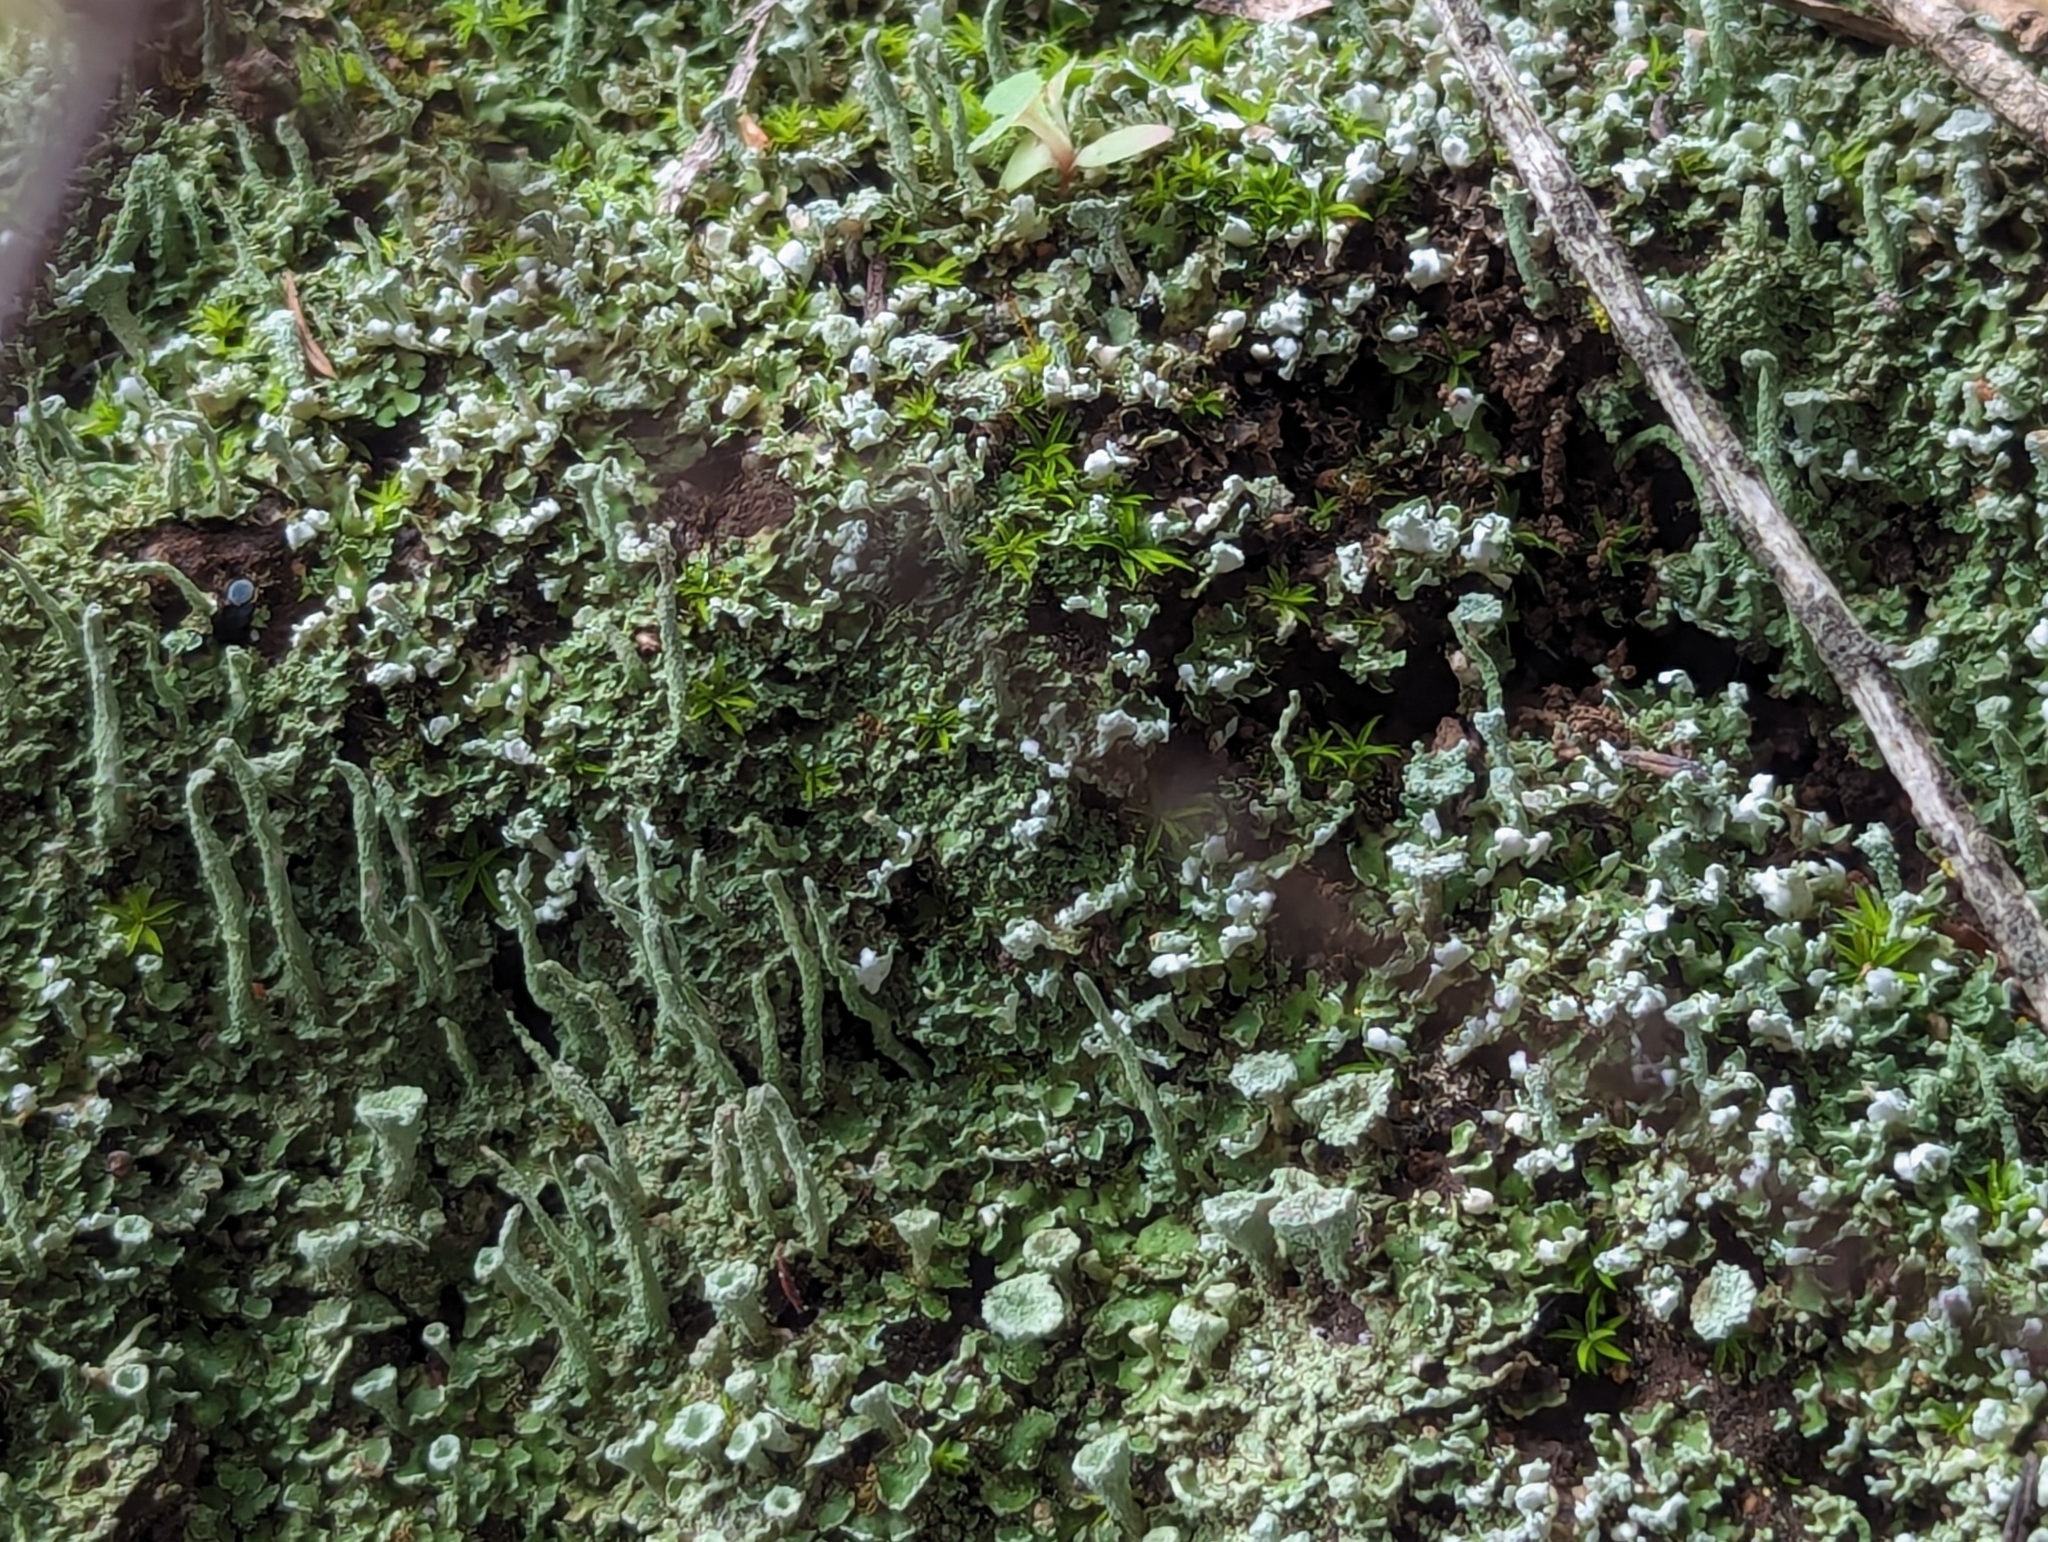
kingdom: Plantae
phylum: Marchantiophyta
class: Marchantiopsida
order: Marchantiales
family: Aytoniaceae
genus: Cryptomitrium
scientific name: Cryptomitrium tenerum
